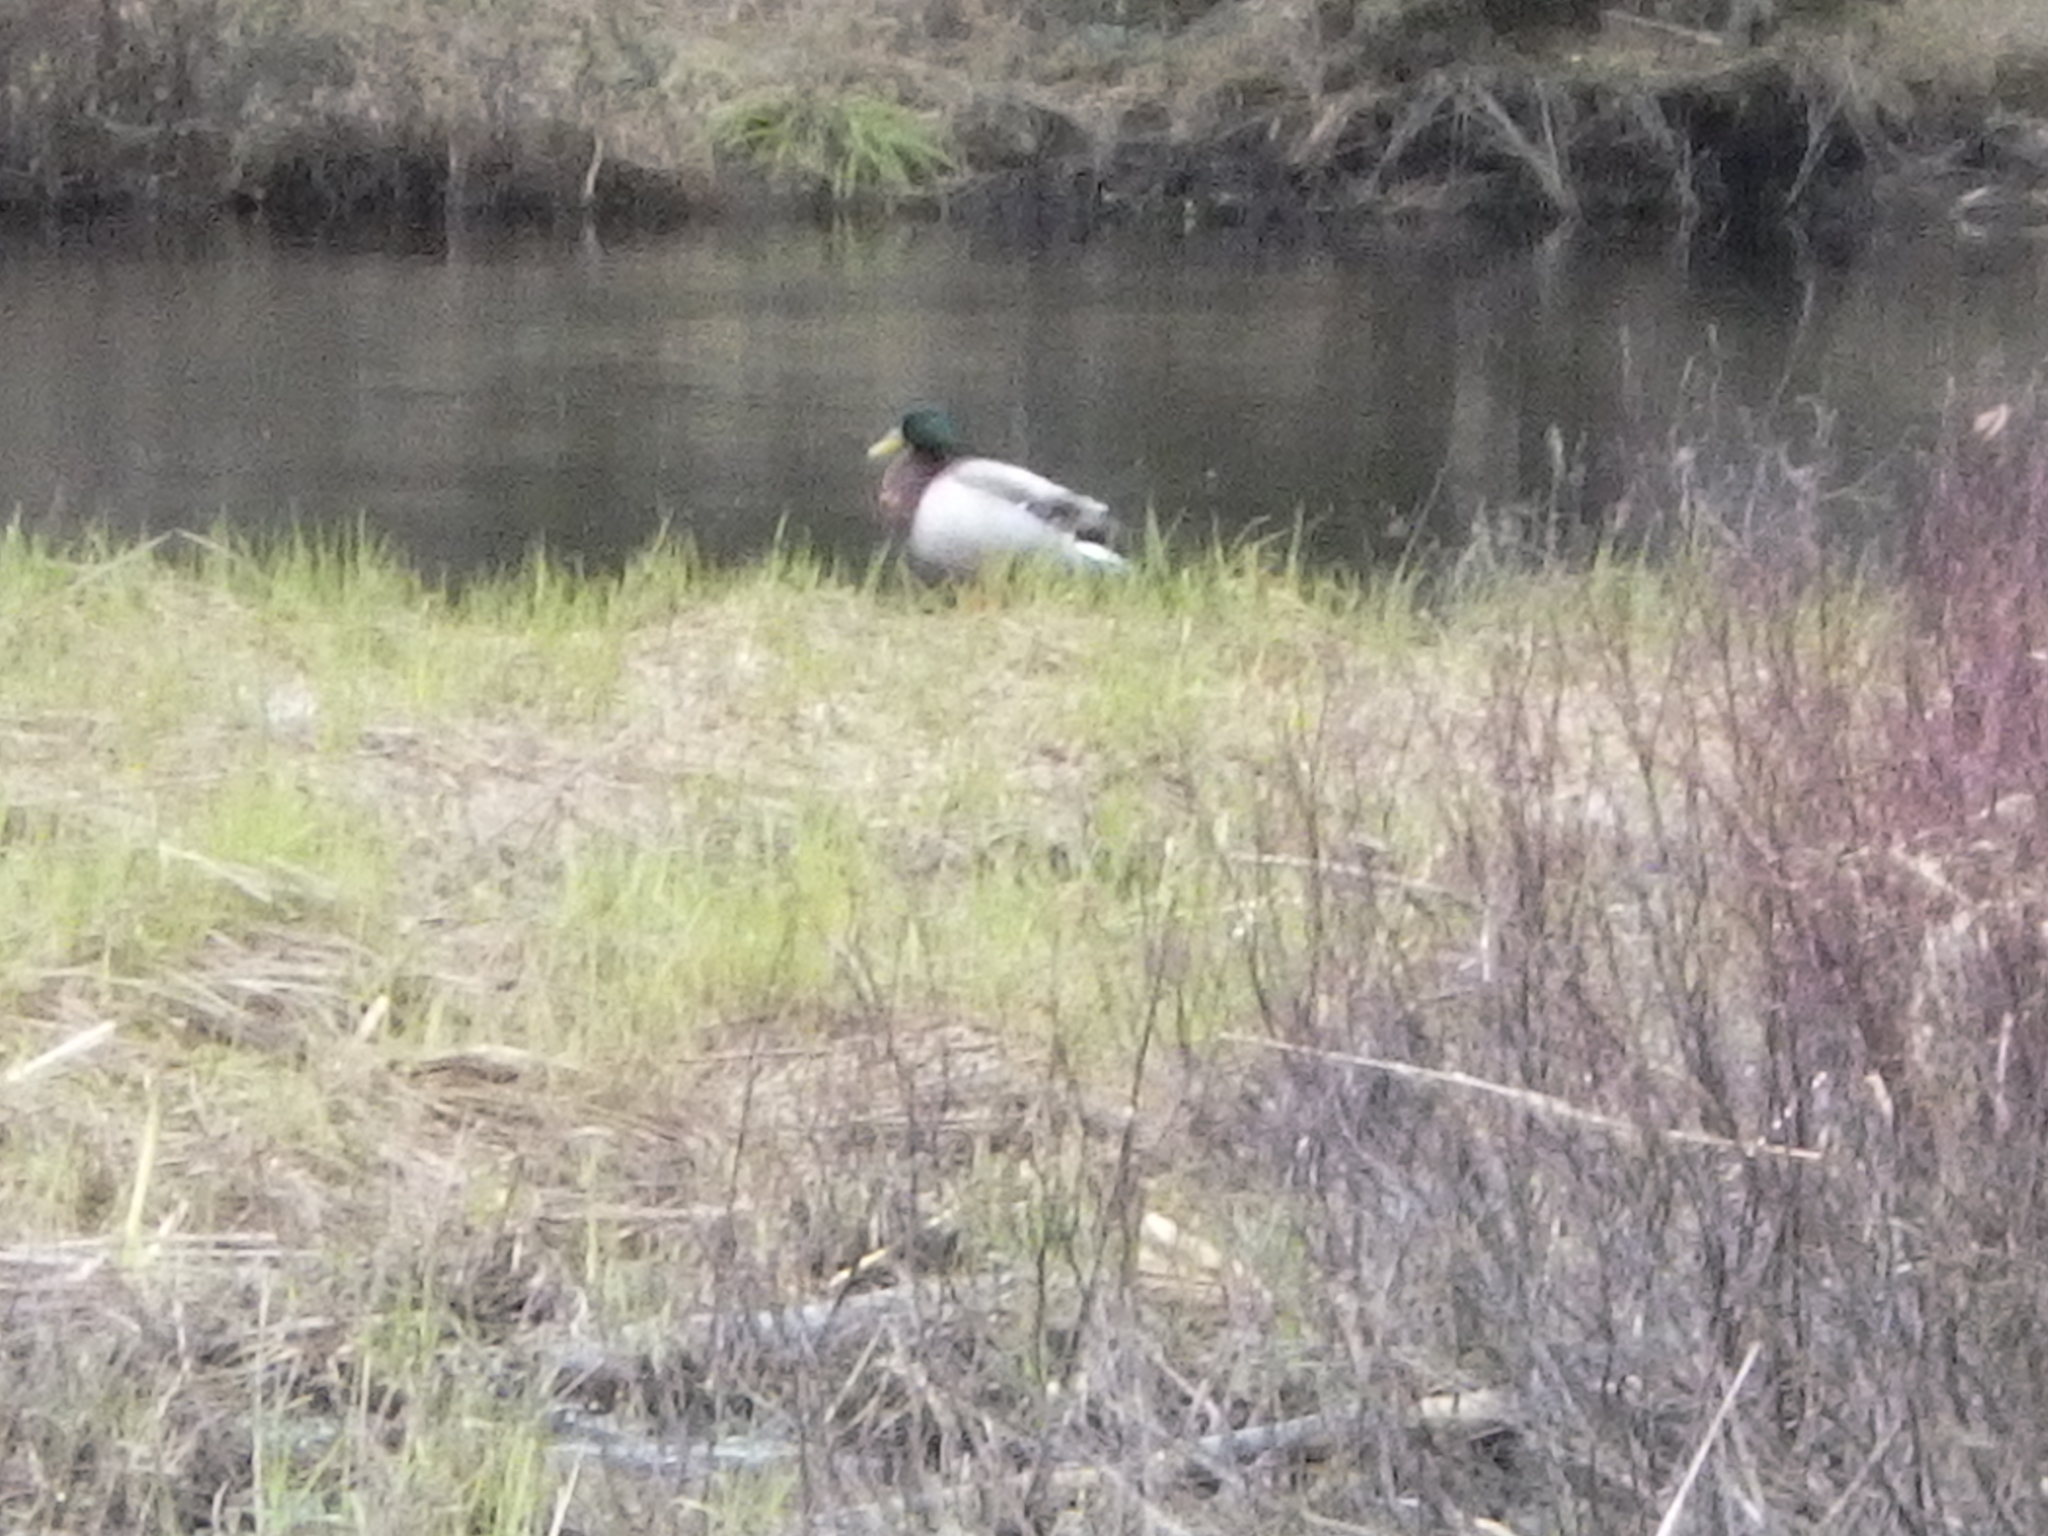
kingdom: Animalia
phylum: Chordata
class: Aves
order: Anseriformes
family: Anatidae
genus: Anas
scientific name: Anas platyrhynchos
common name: Mallard
